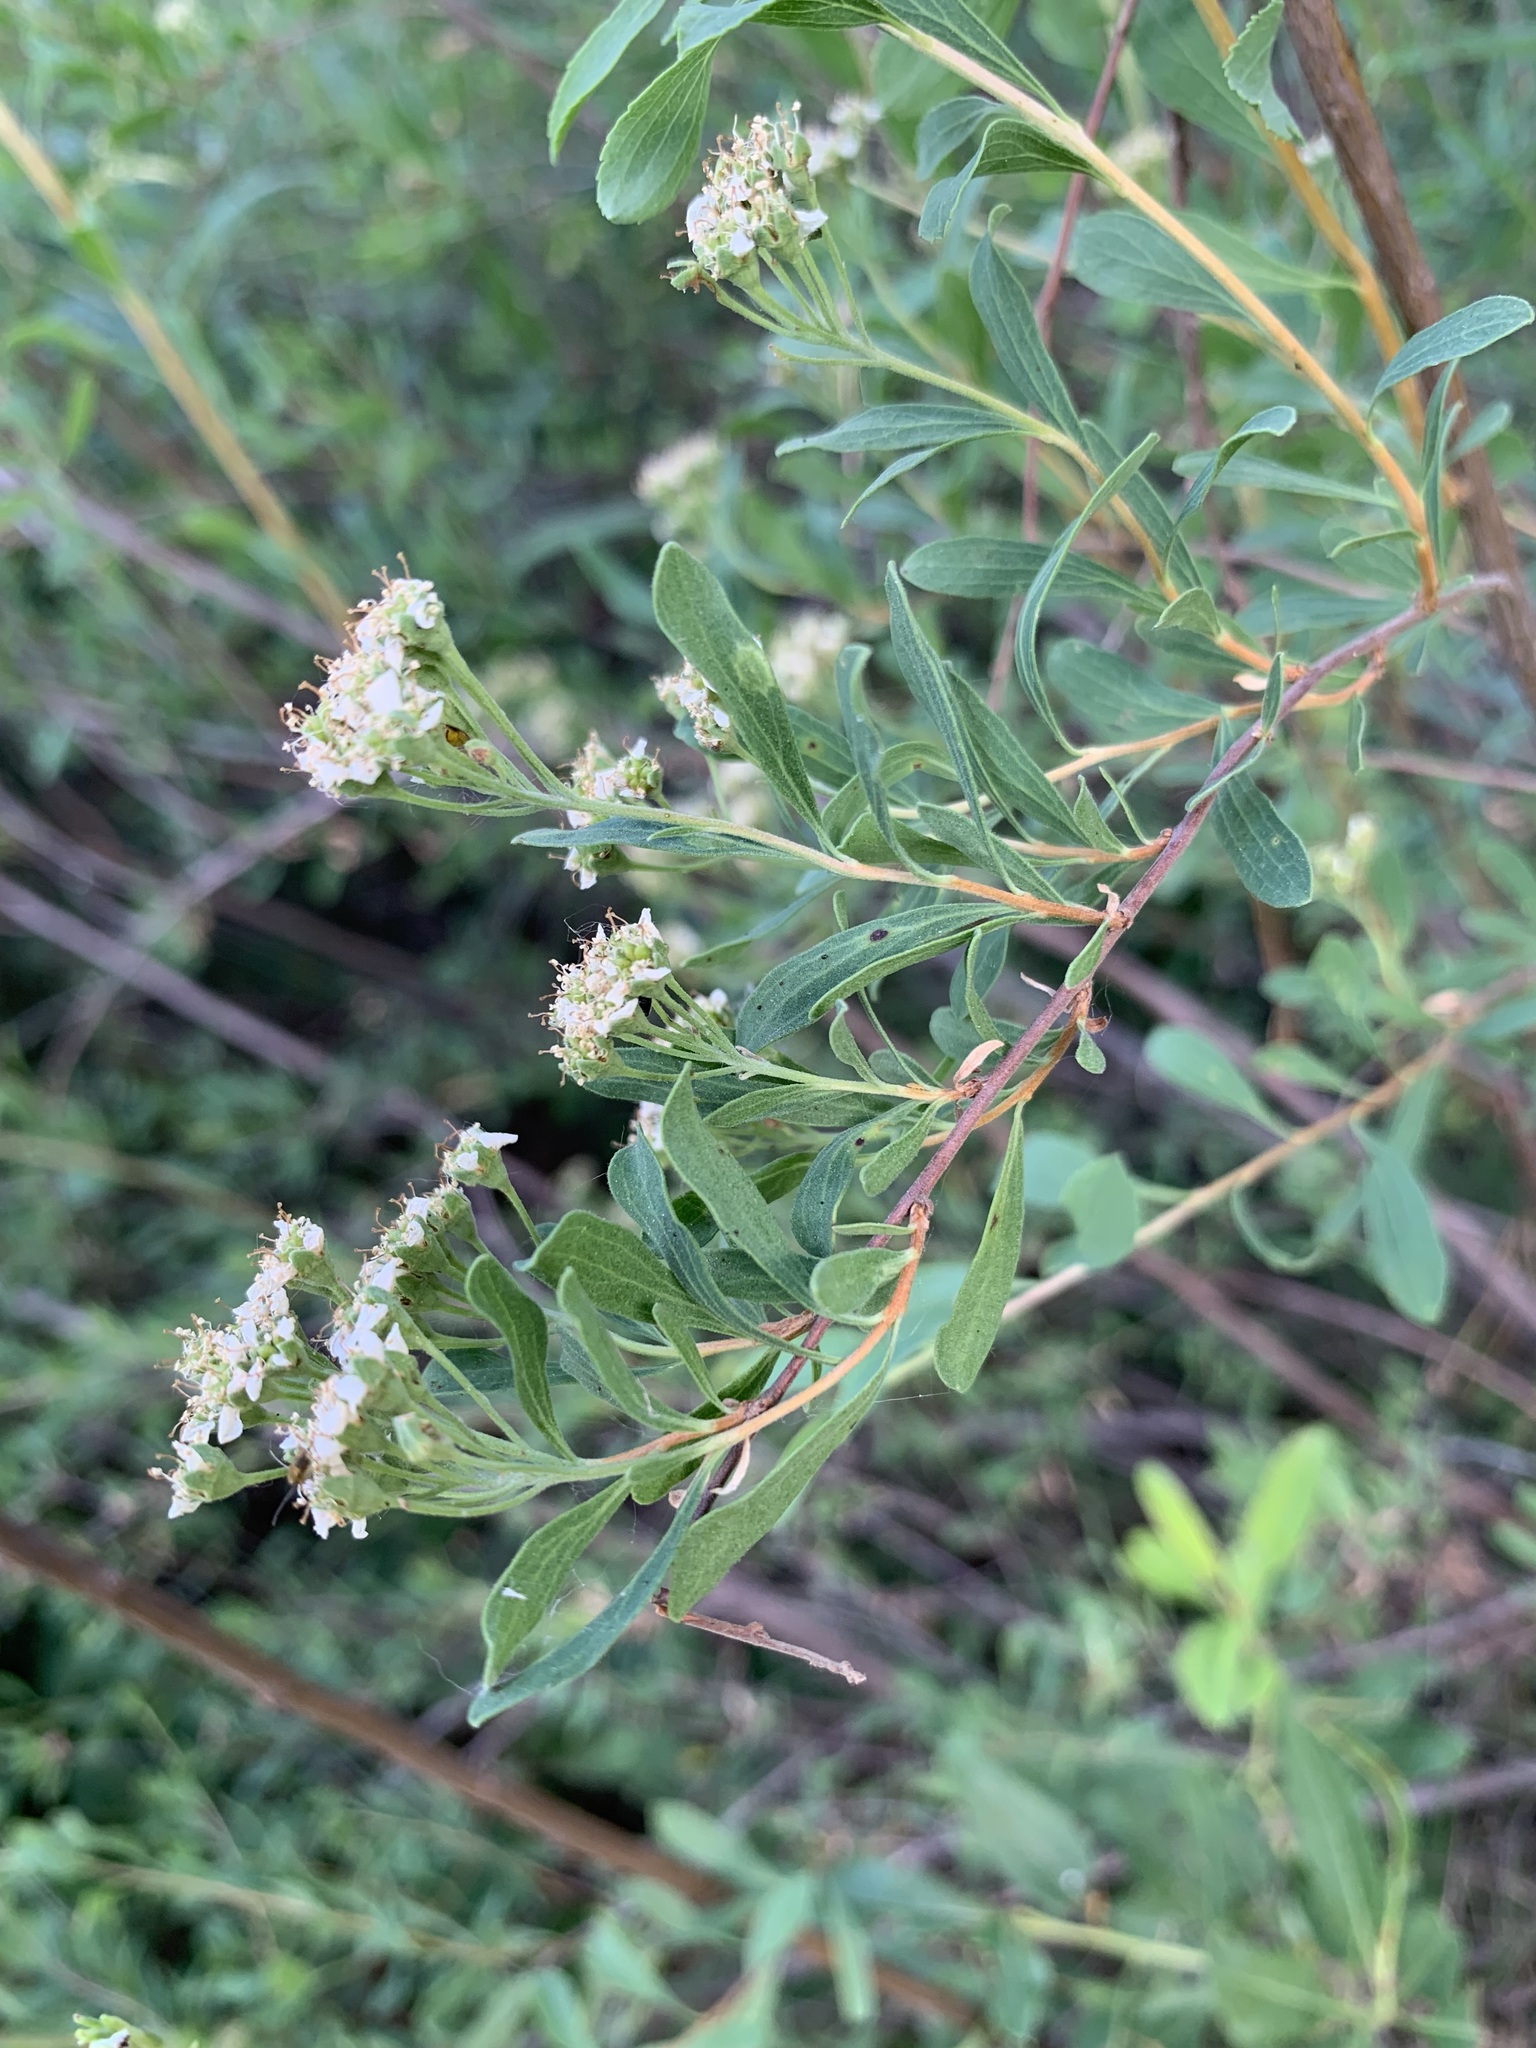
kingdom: Plantae
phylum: Tracheophyta
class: Magnoliopsida
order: Rosales
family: Rosaceae
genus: Spiraea
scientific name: Spiraea crenata
